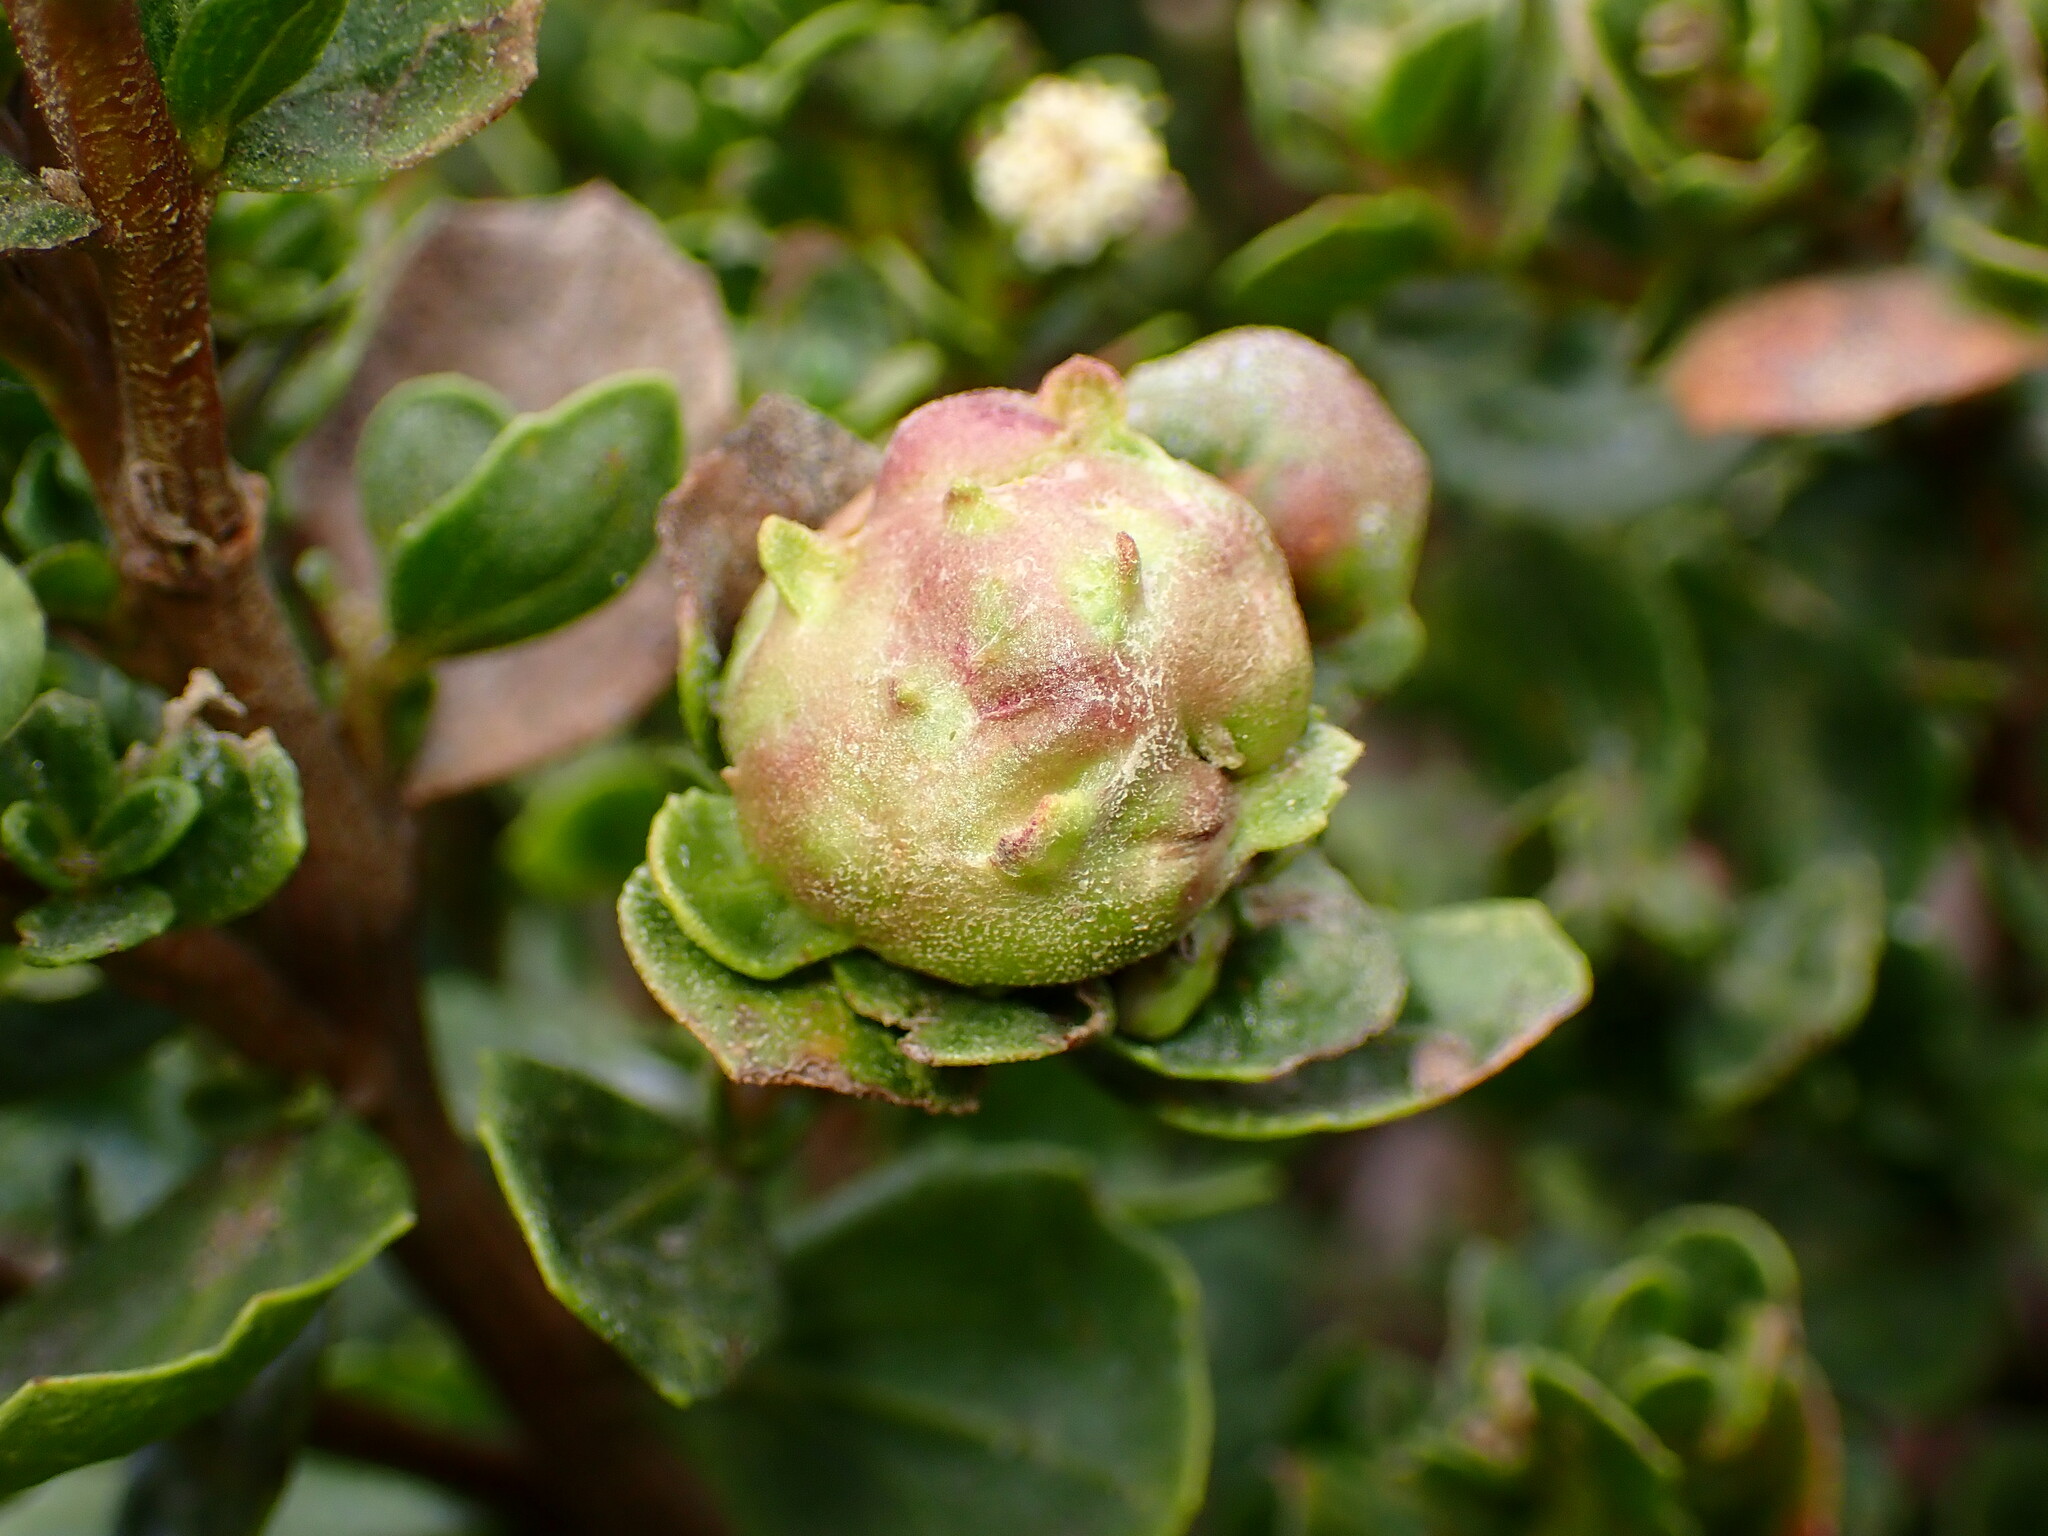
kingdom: Animalia
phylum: Arthropoda
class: Insecta
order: Diptera
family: Cecidomyiidae
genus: Rhopalomyia
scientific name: Rhopalomyia californica
